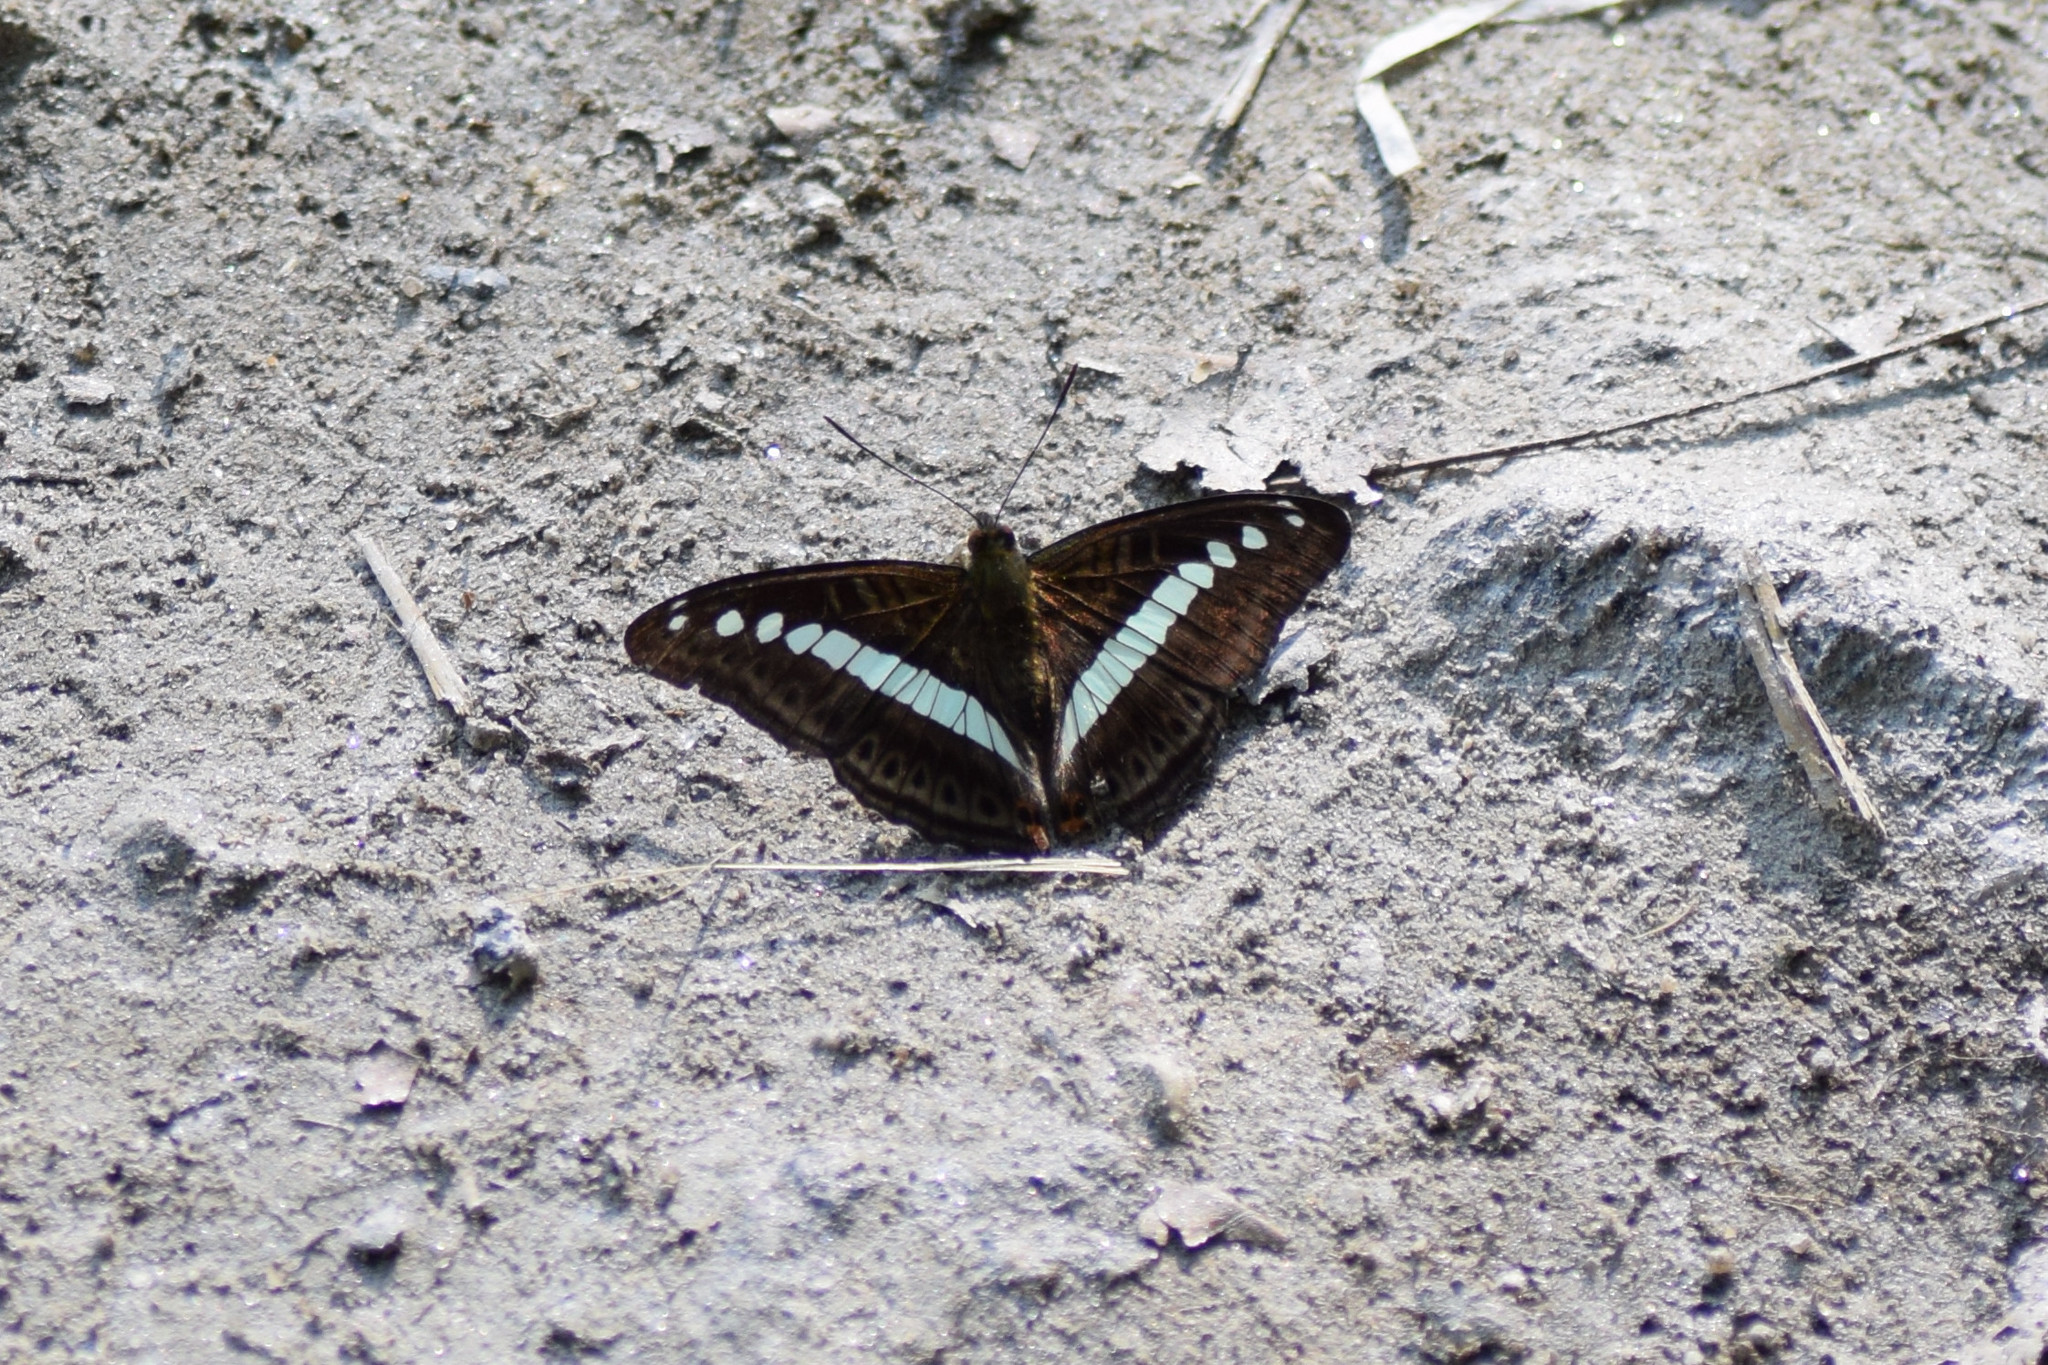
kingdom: Animalia
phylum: Arthropoda
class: Insecta
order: Lepidoptera
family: Nymphalidae
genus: Limenitis
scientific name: Limenitis Sumalia daraxa
